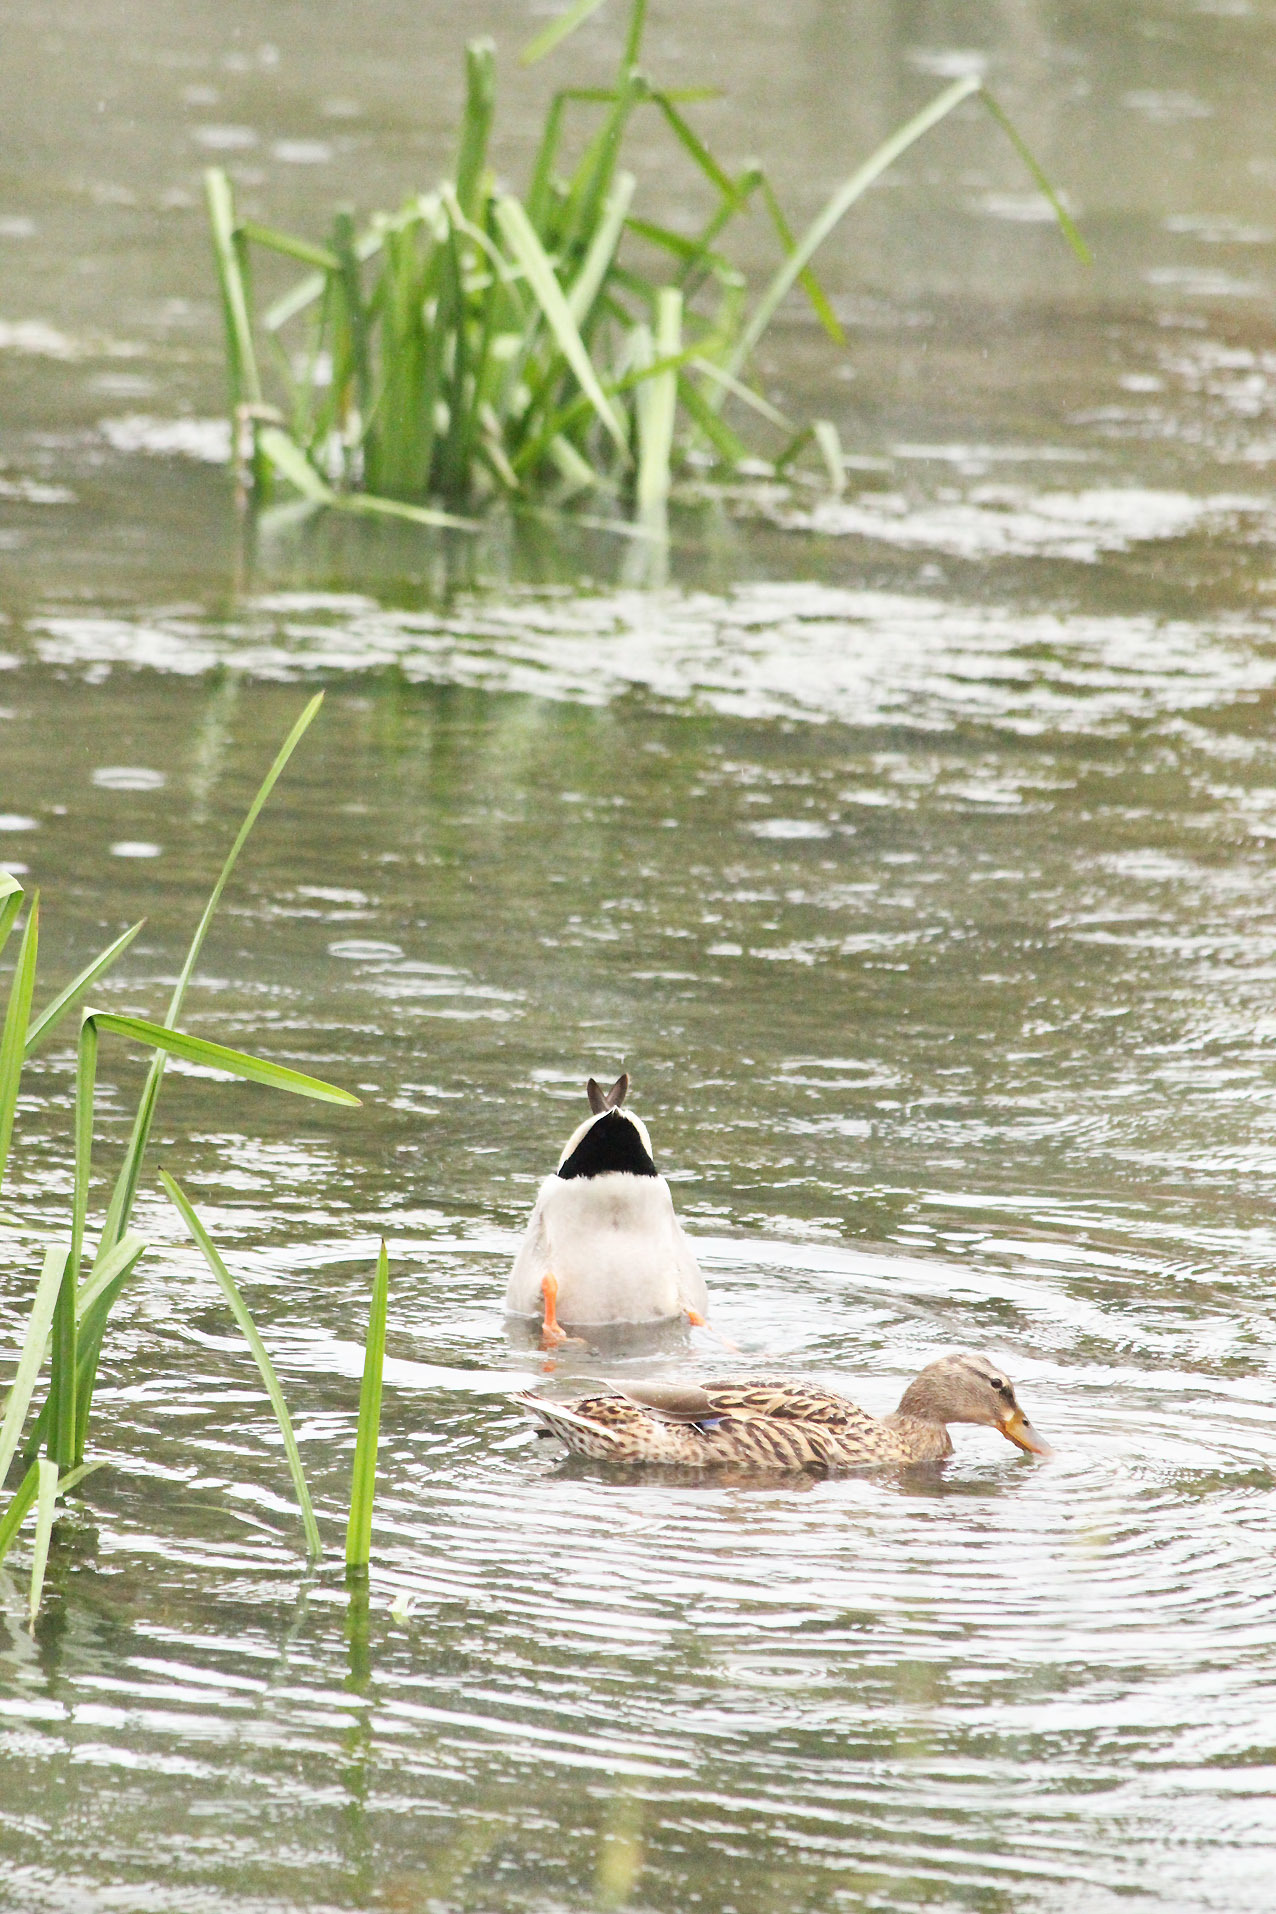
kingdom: Animalia
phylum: Chordata
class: Aves
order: Anseriformes
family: Anatidae
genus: Anas
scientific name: Anas platyrhynchos
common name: Mallard
